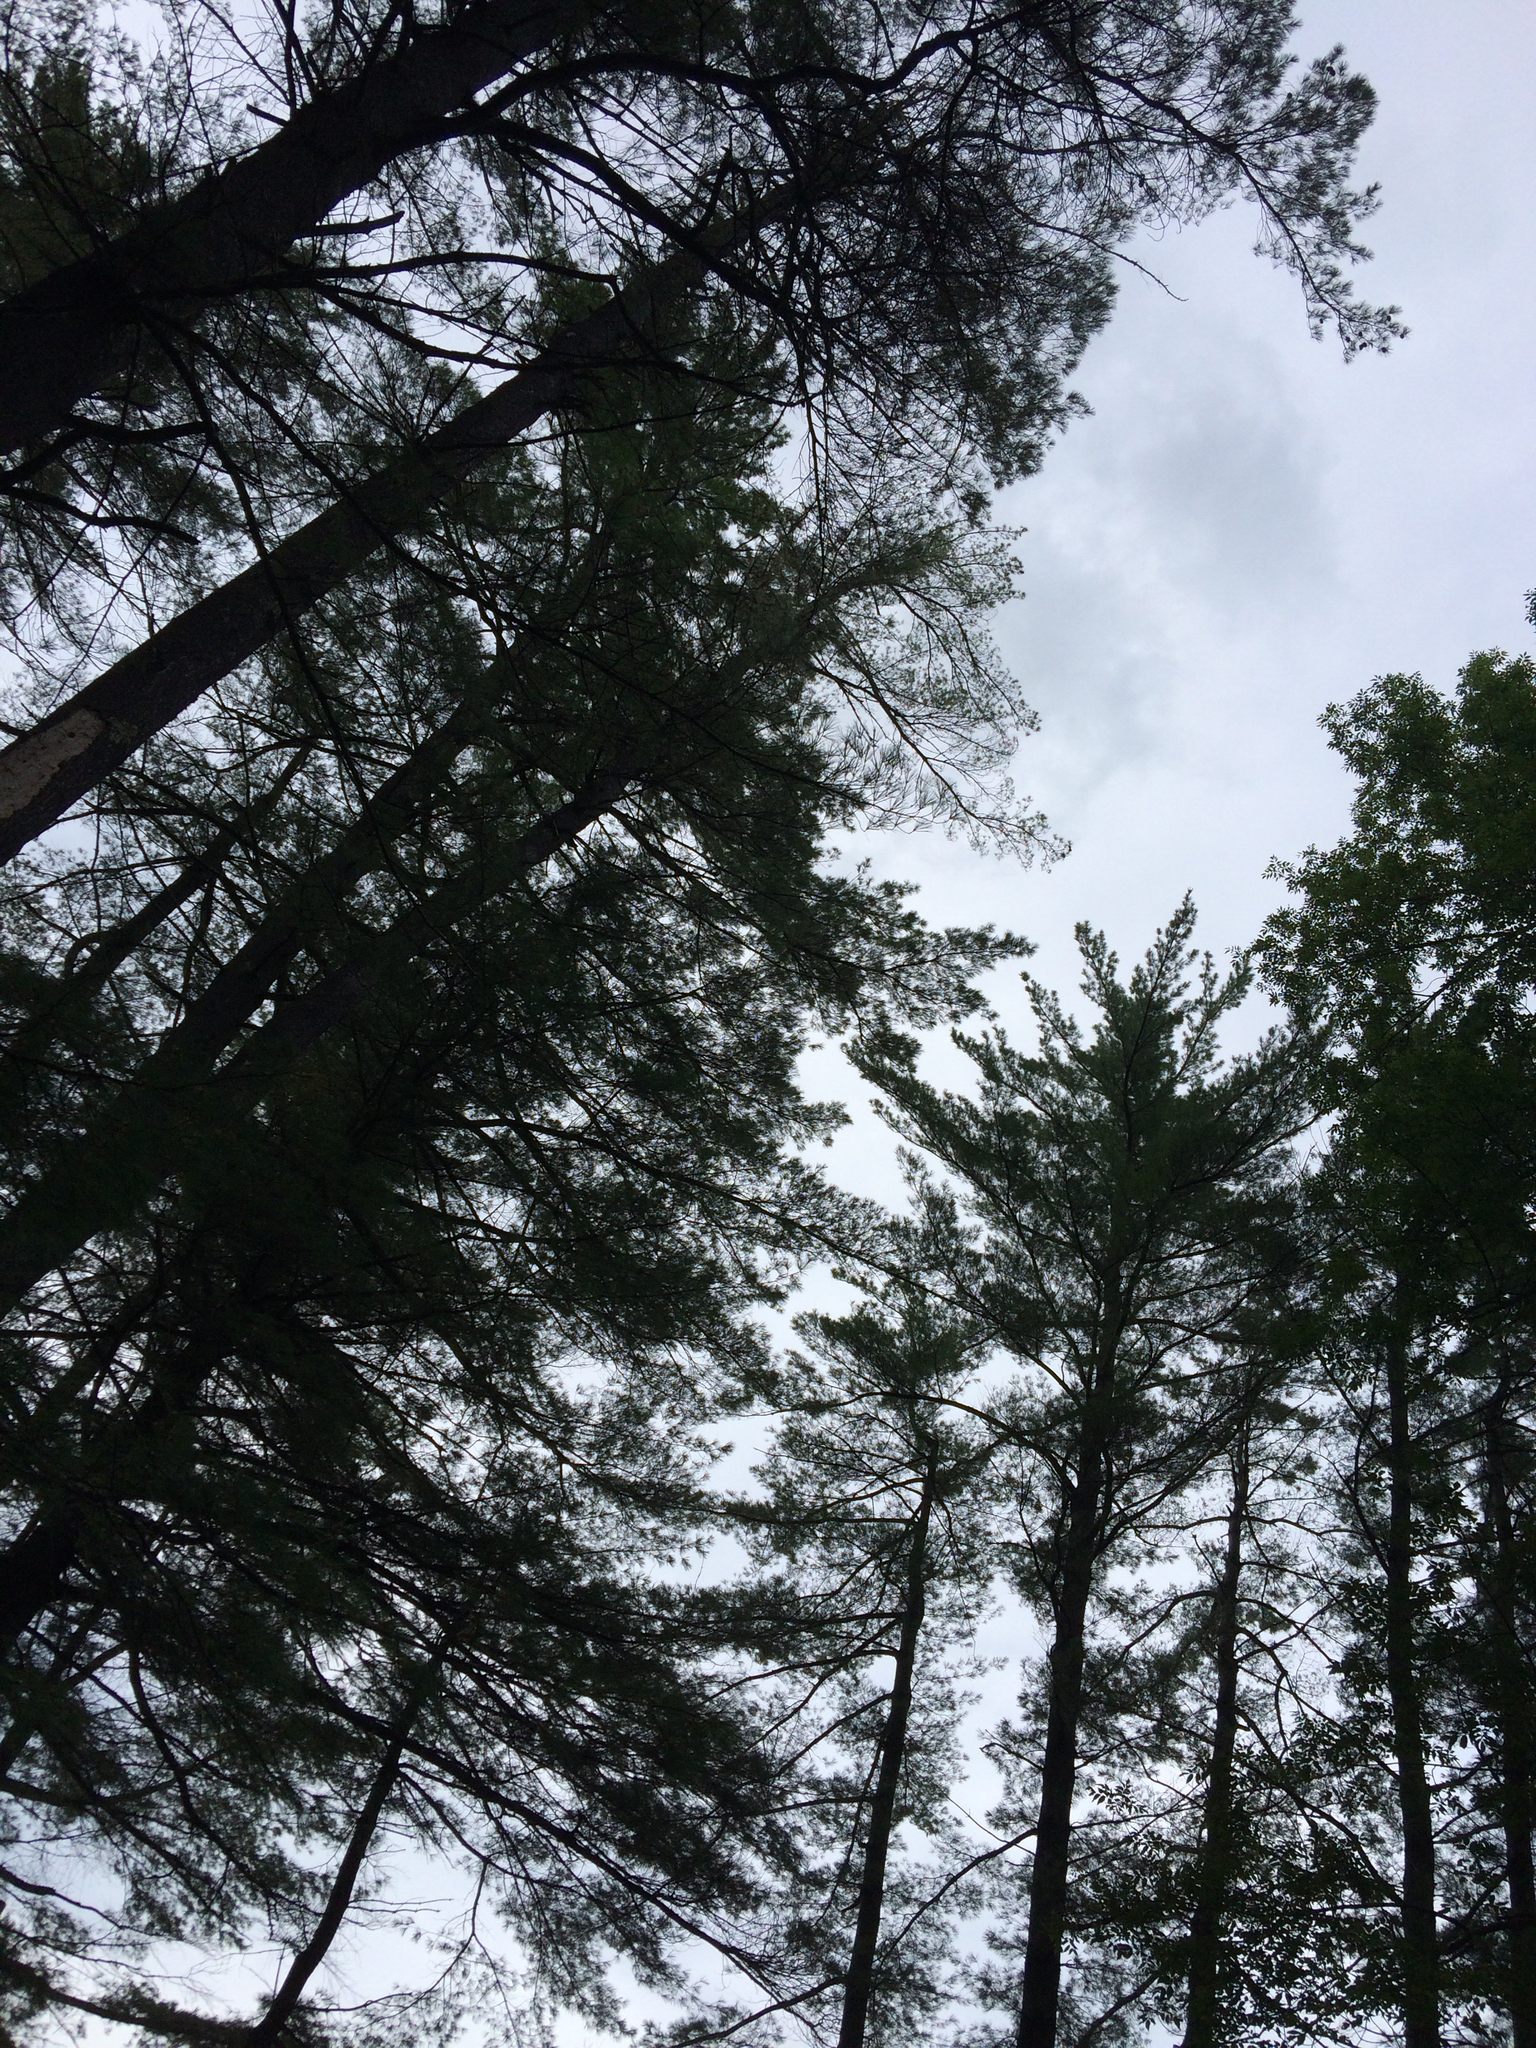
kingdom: Plantae
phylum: Tracheophyta
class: Pinopsida
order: Pinales
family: Pinaceae
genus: Pinus
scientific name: Pinus strobus
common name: Weymouth pine
